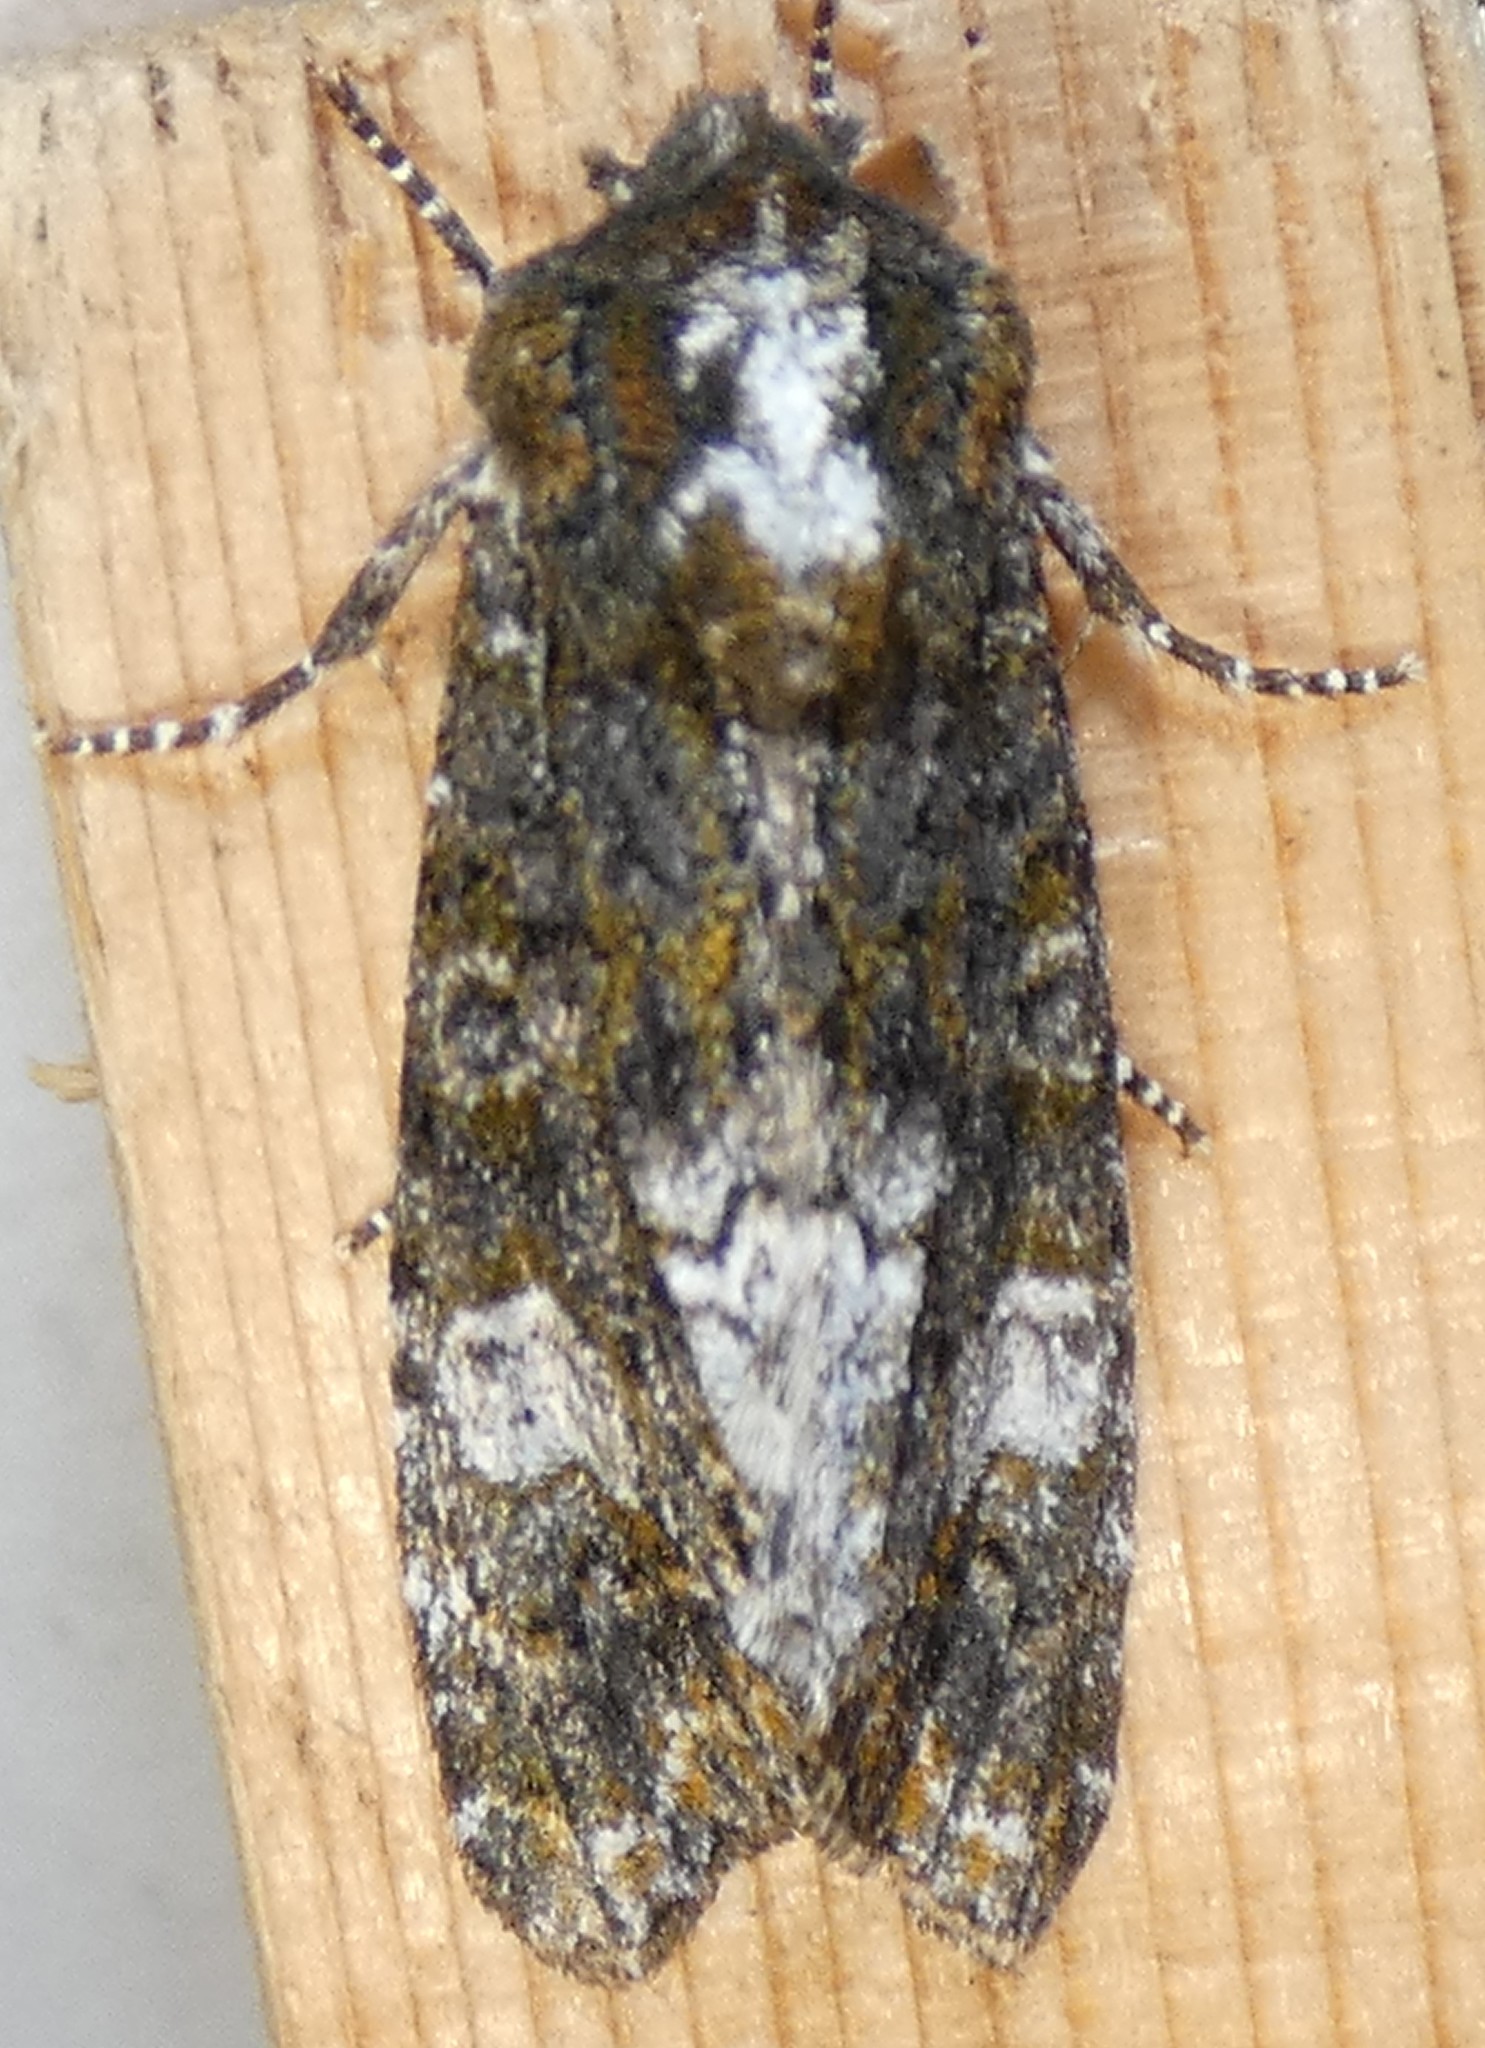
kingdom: Animalia
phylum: Arthropoda
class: Insecta
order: Lepidoptera
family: Noctuidae
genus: Psaphida
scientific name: Psaphida grotei
